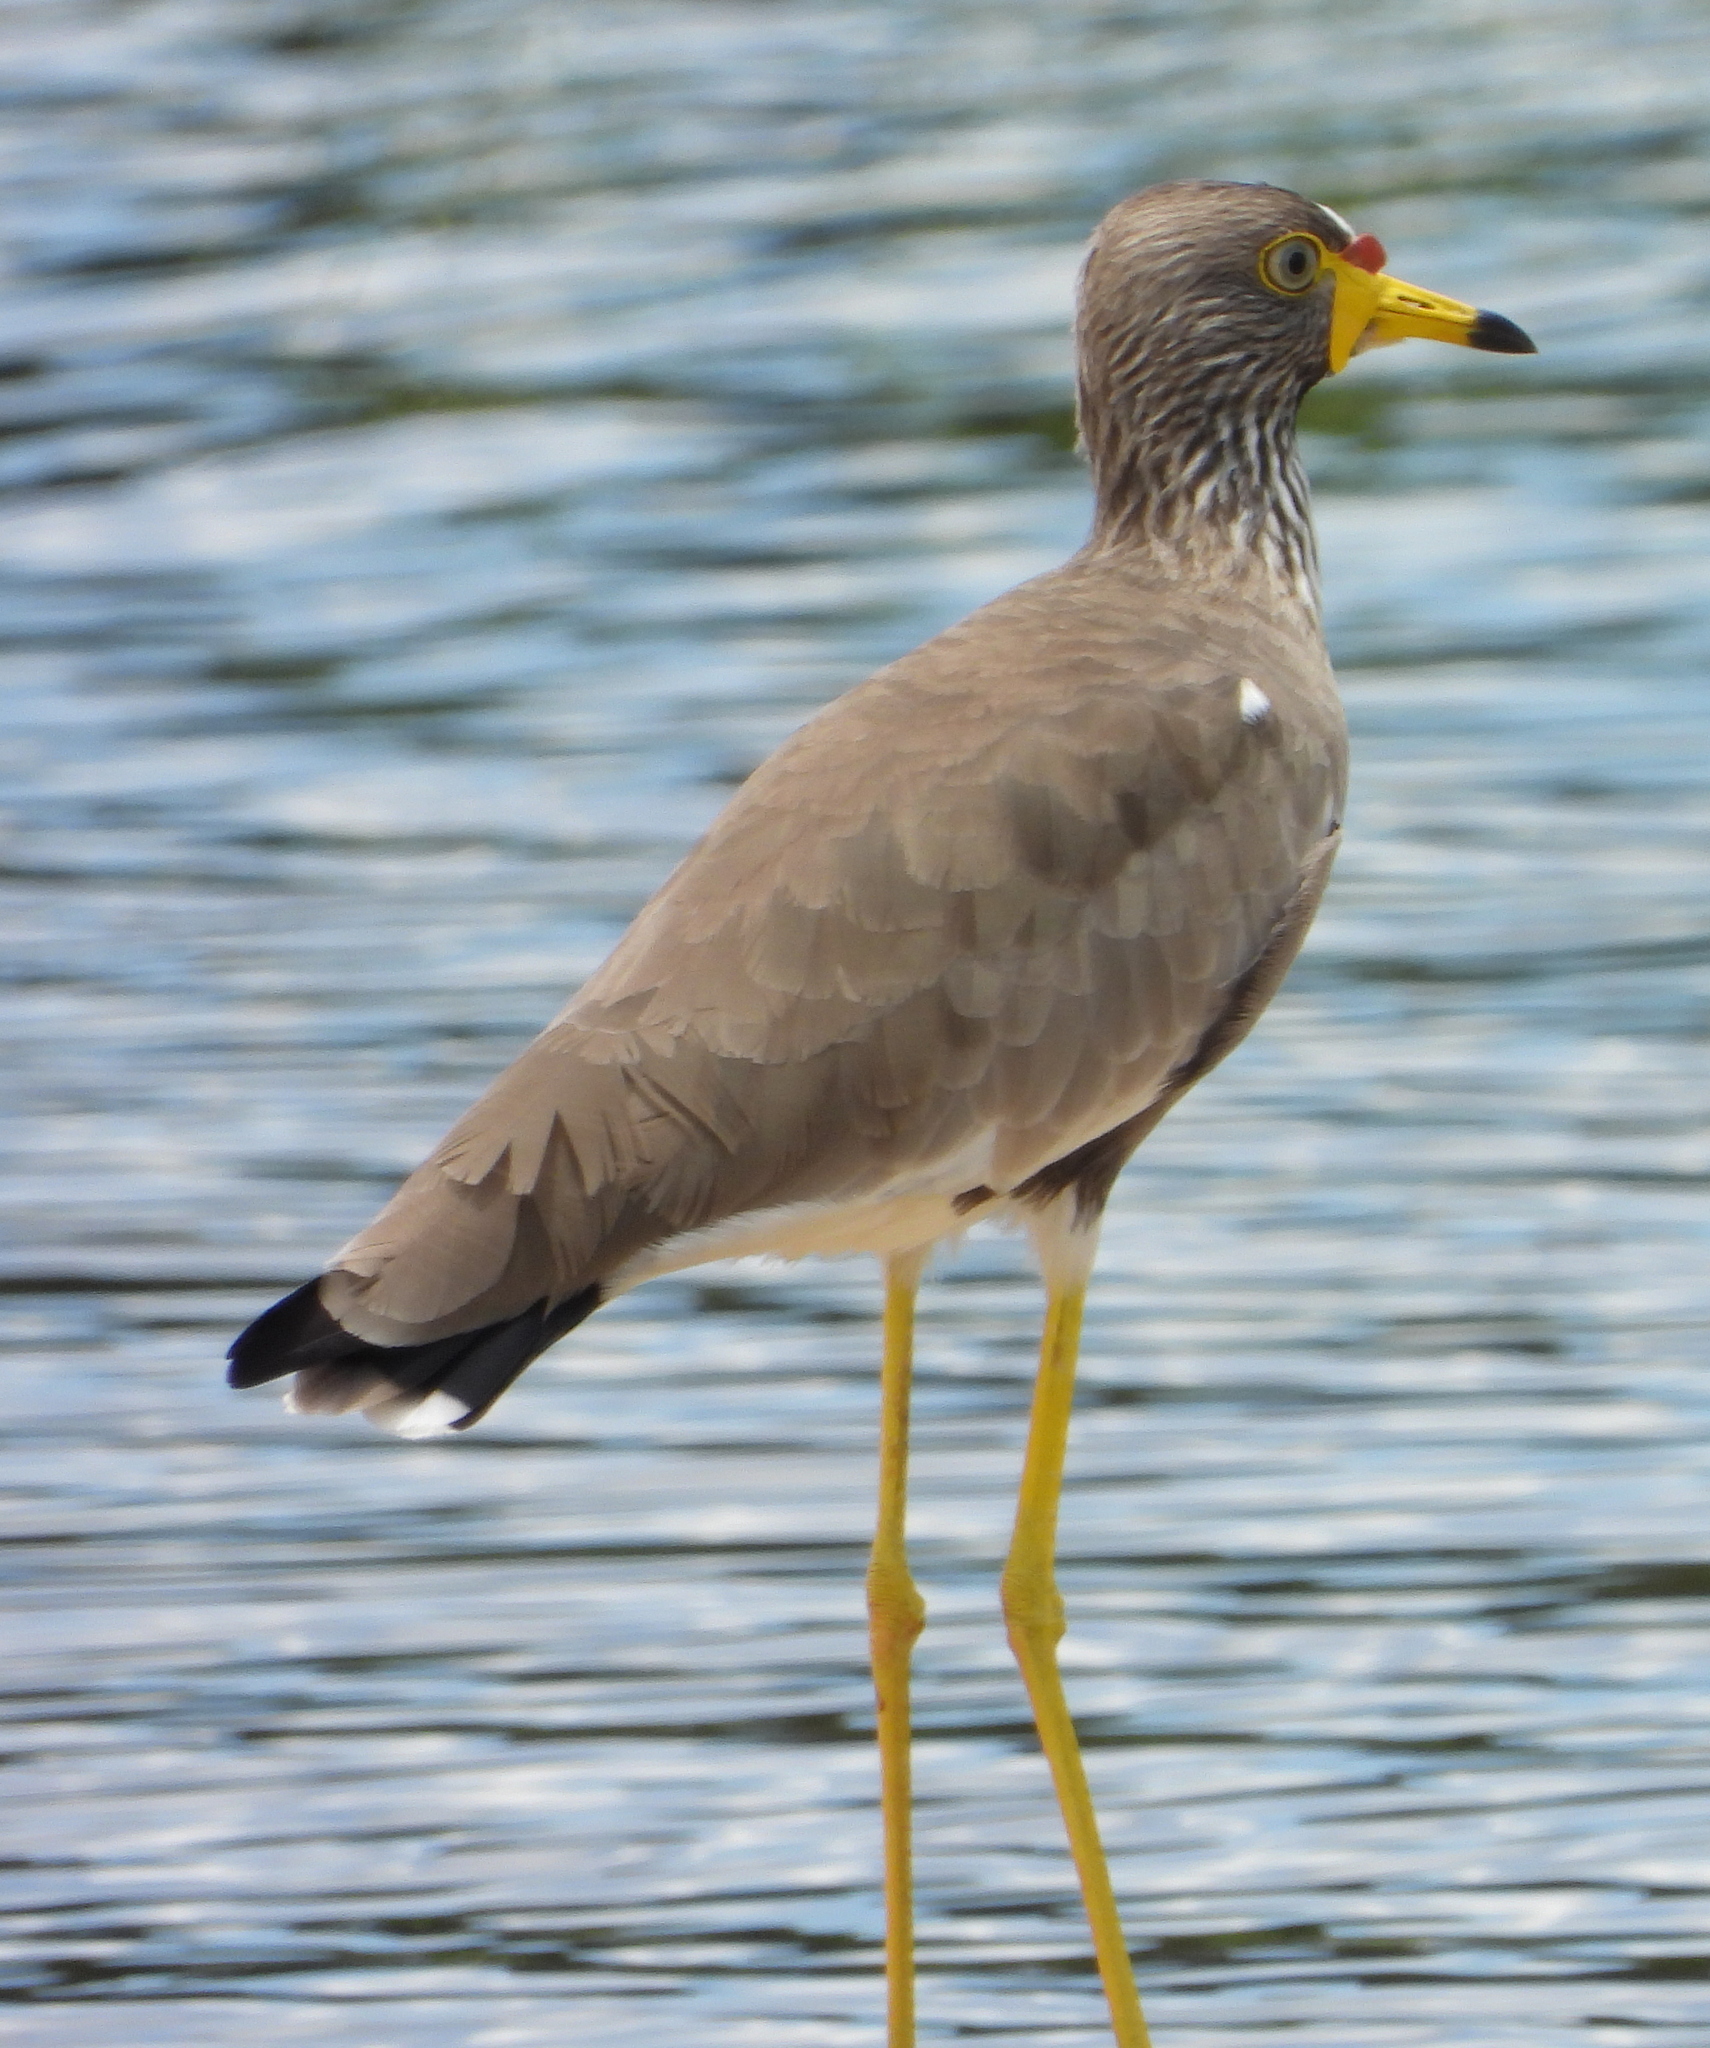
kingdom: Animalia
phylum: Chordata
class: Aves
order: Charadriiformes
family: Charadriidae
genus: Vanellus
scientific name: Vanellus senegallus
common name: African wattled lapwing
